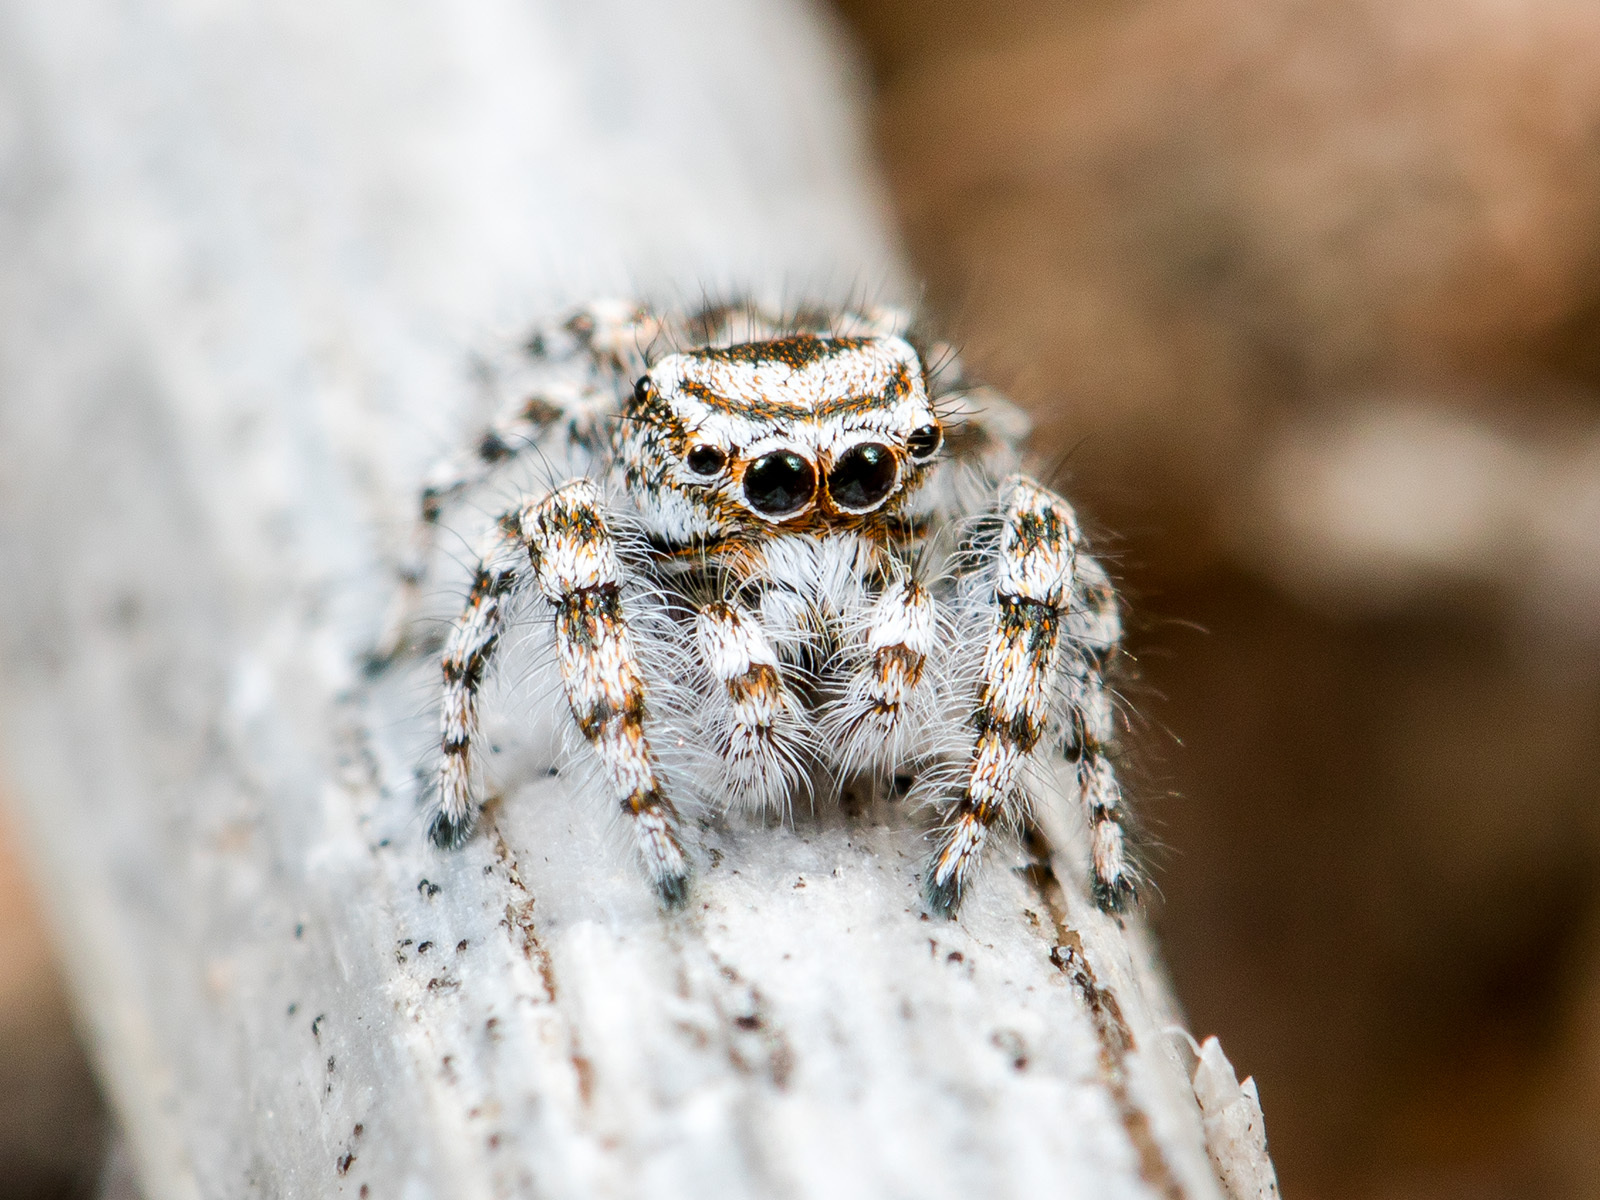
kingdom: Animalia
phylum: Arthropoda
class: Arachnida
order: Araneae
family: Salticidae
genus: Pseudomogrus
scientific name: Pseudomogrus dalaensis
